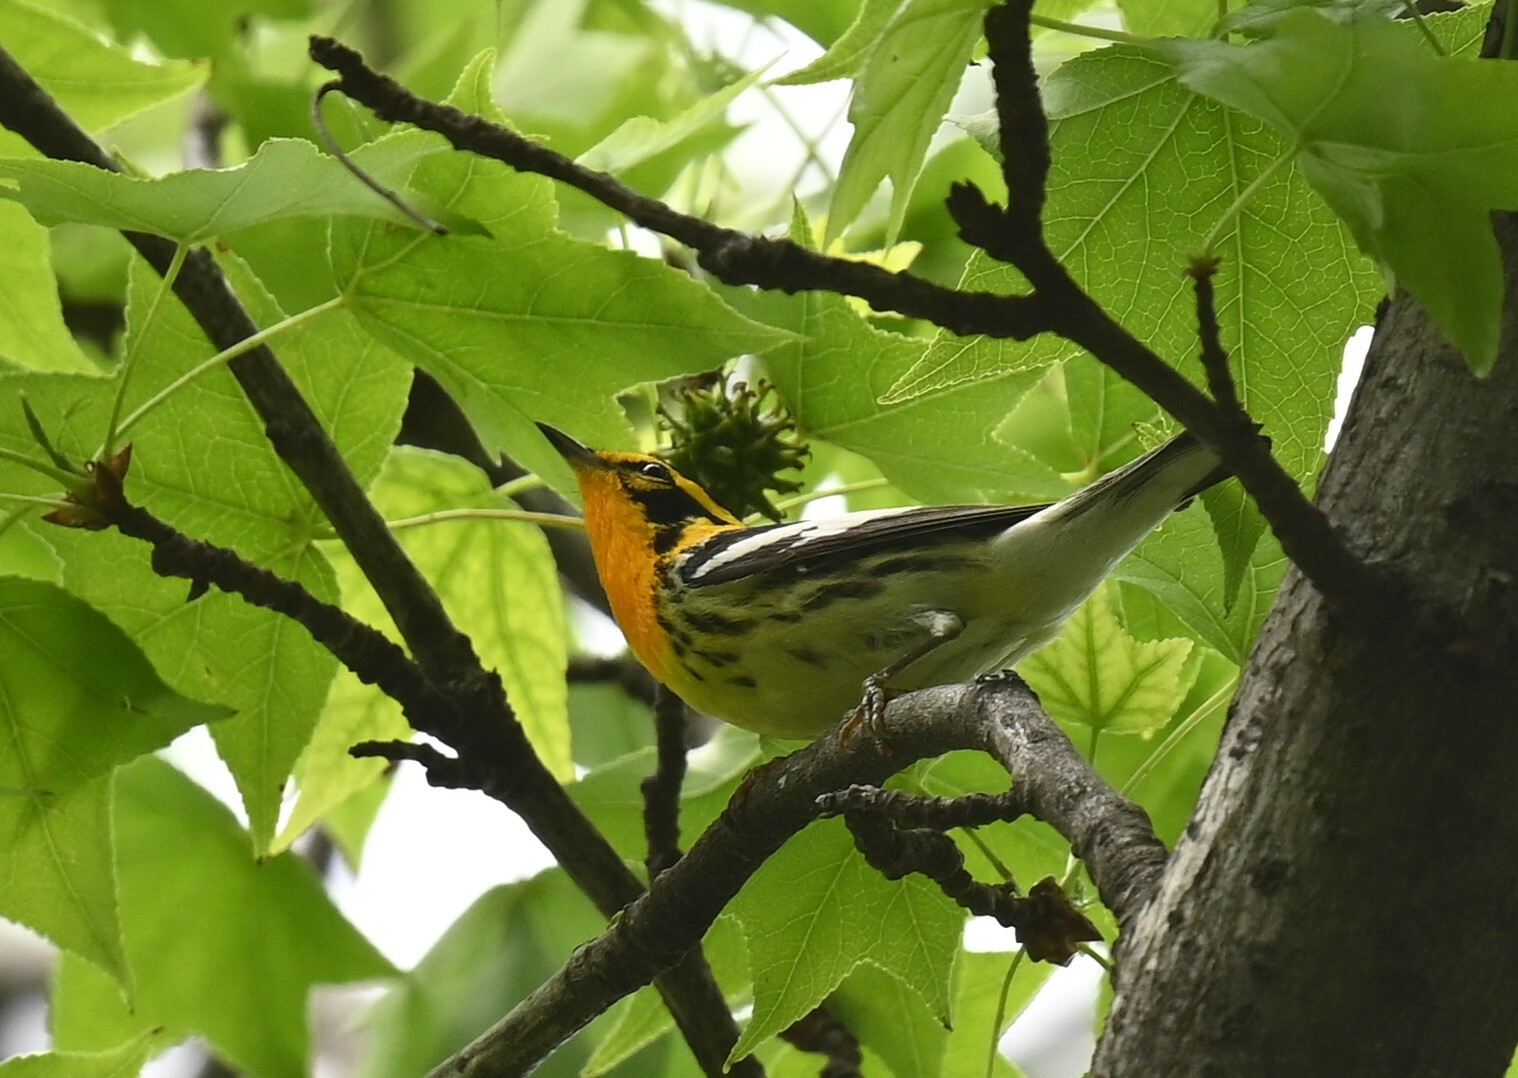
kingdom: Animalia
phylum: Chordata
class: Aves
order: Passeriformes
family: Parulidae
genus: Setophaga
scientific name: Setophaga fusca
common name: Blackburnian warbler
